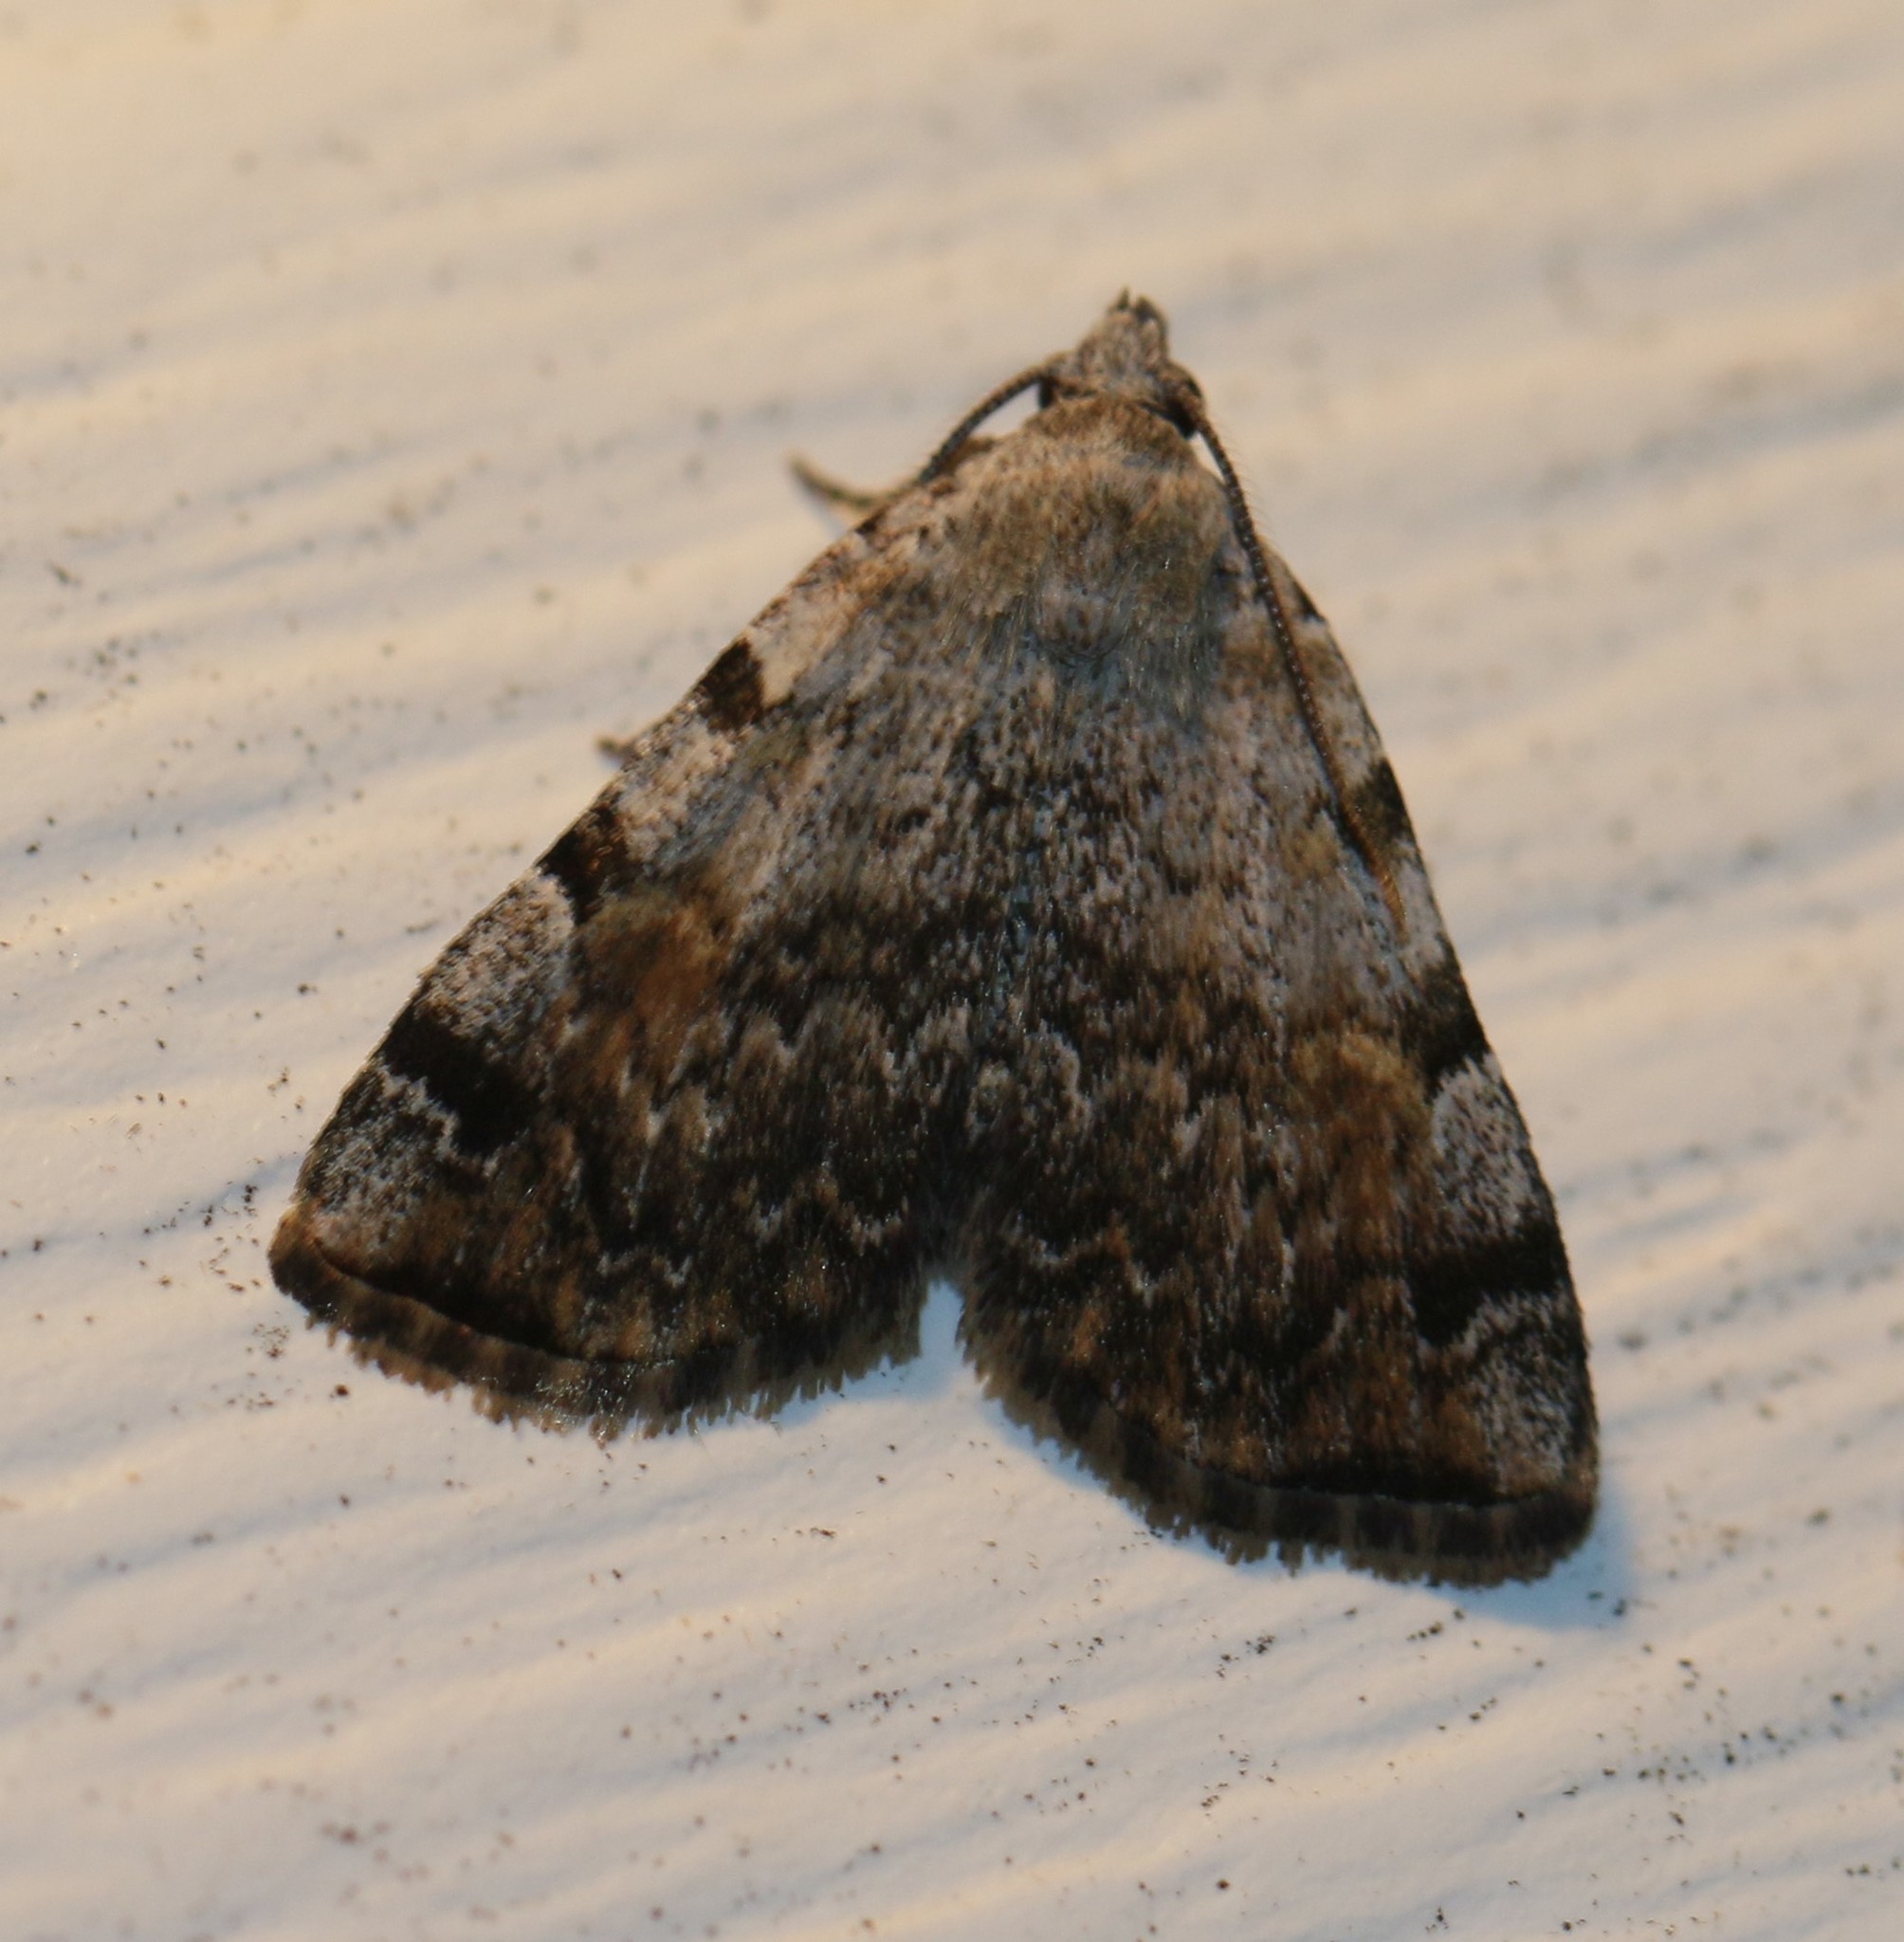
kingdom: Animalia
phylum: Arthropoda
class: Insecta
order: Lepidoptera
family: Erebidae
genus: Idia
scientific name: Idia americalis
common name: American idia moth
